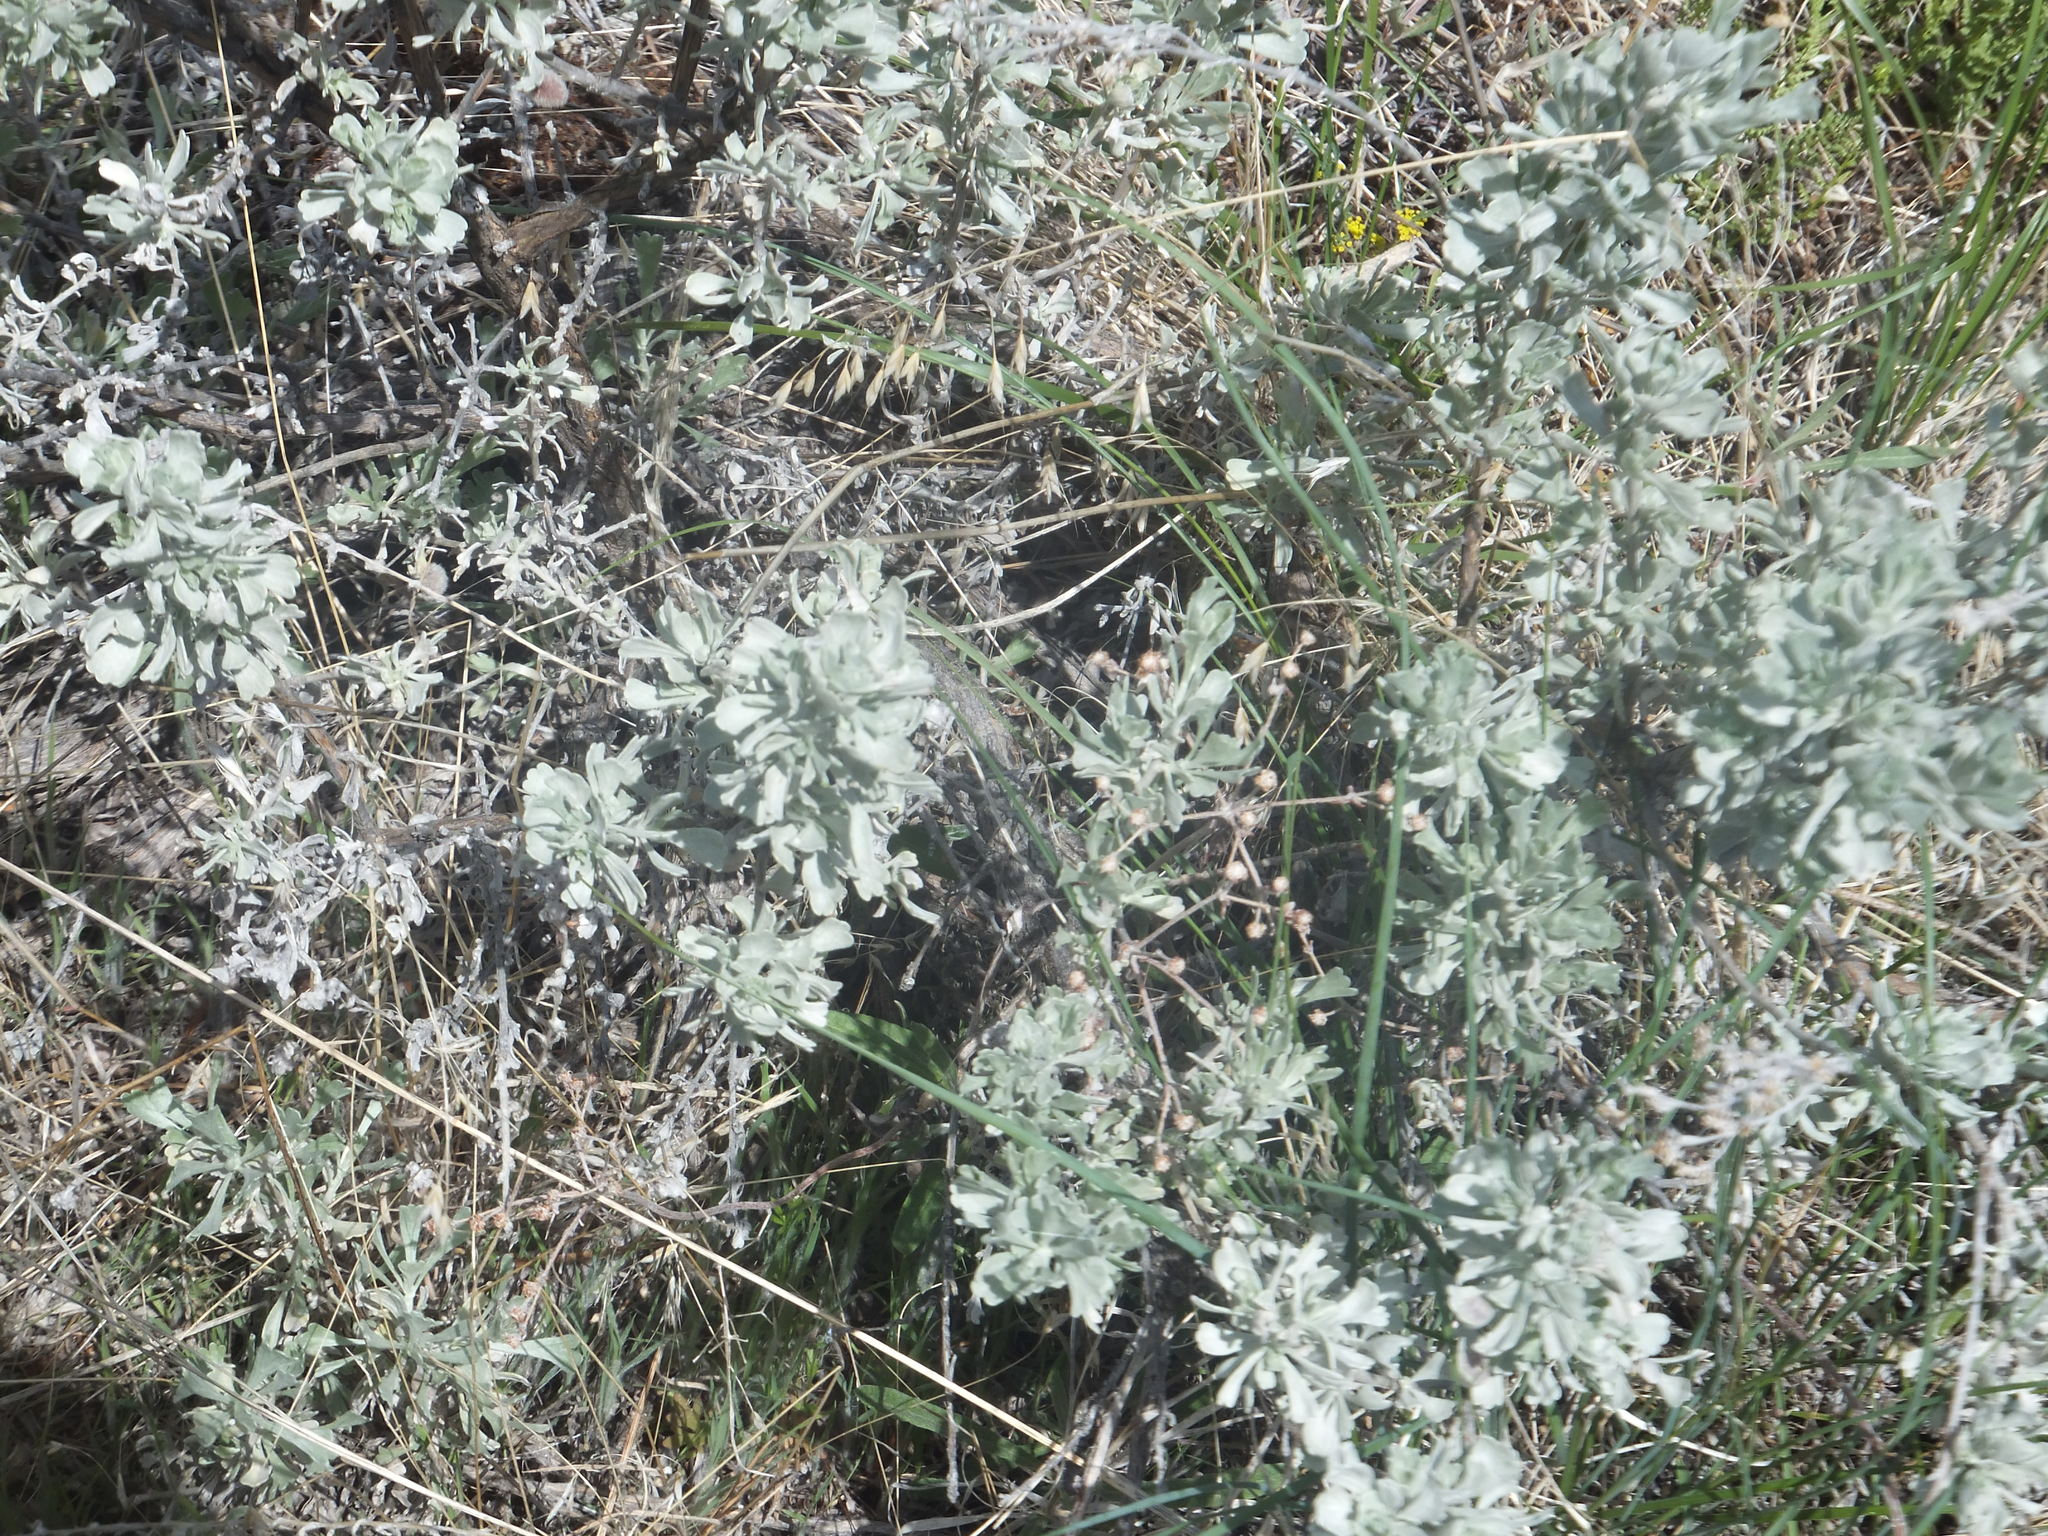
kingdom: Plantae
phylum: Tracheophyta
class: Magnoliopsida
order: Asterales
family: Asteraceae
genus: Artemisia
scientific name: Artemisia tridentata
